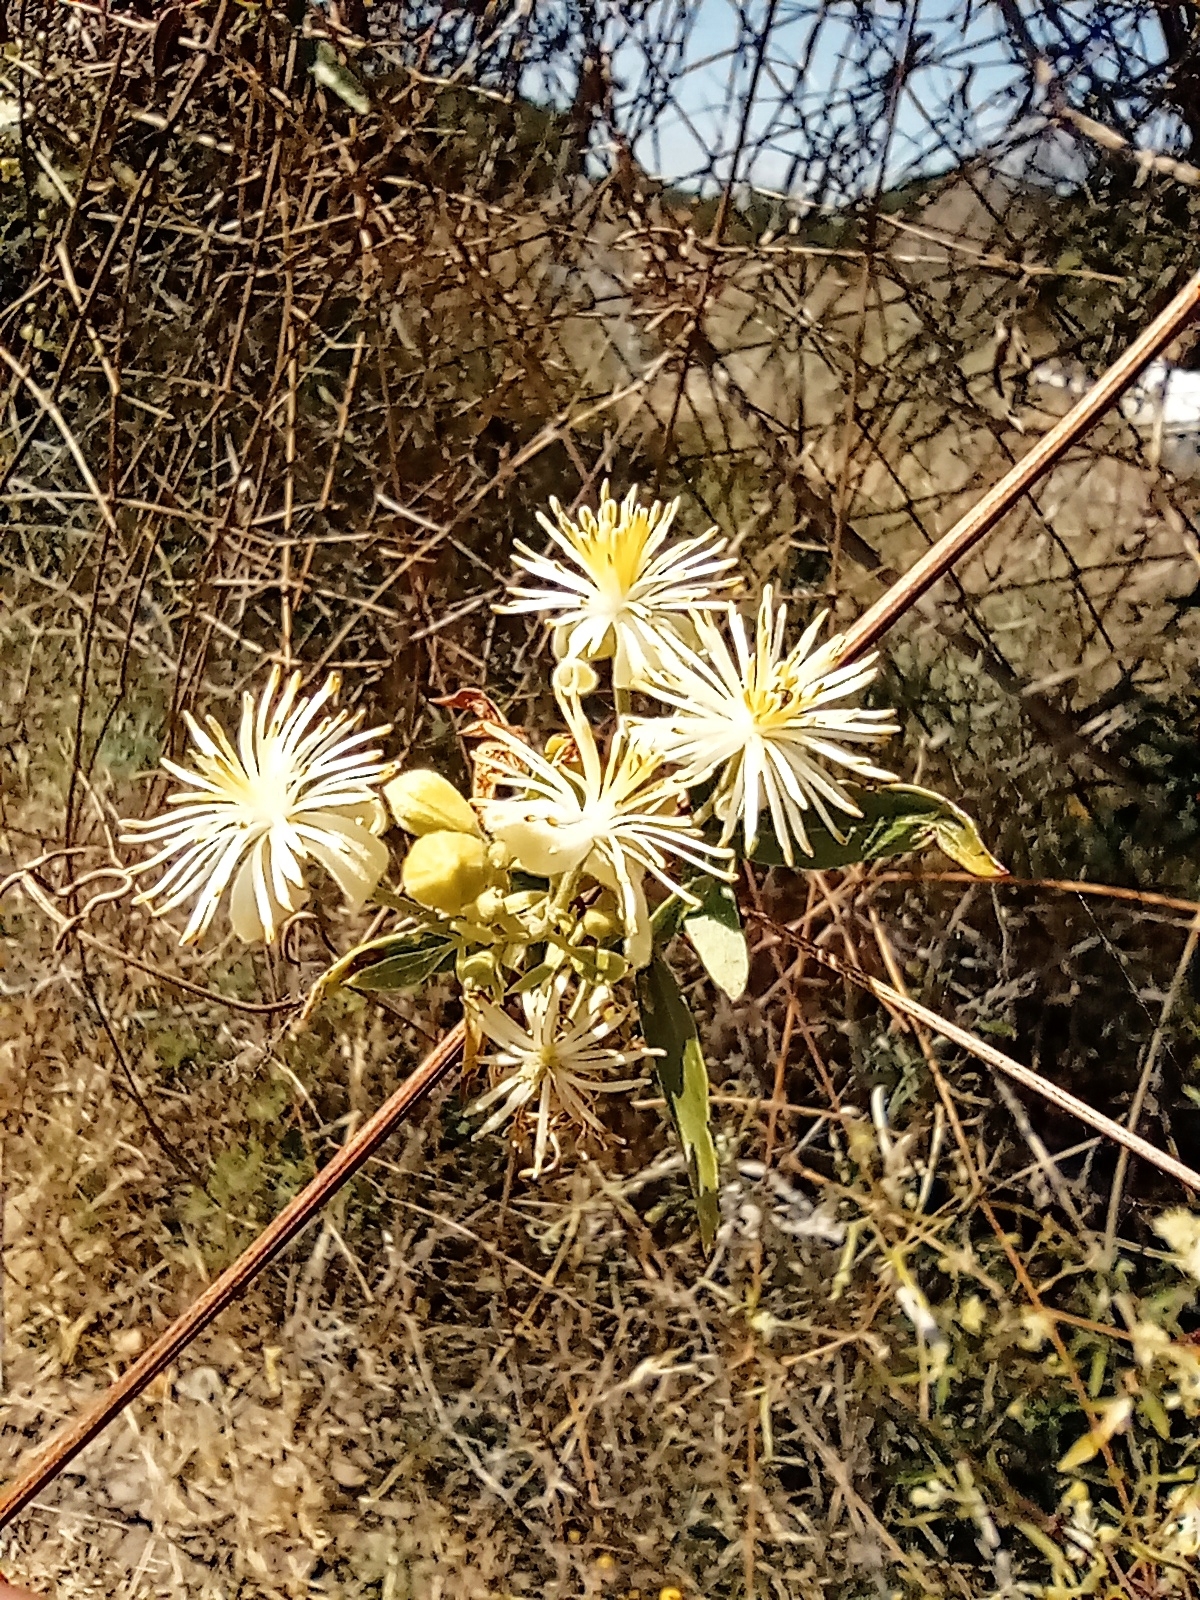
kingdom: Plantae
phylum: Tracheophyta
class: Magnoliopsida
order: Ranunculales
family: Ranunculaceae
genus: Clematis
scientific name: Clematis montevidensis
